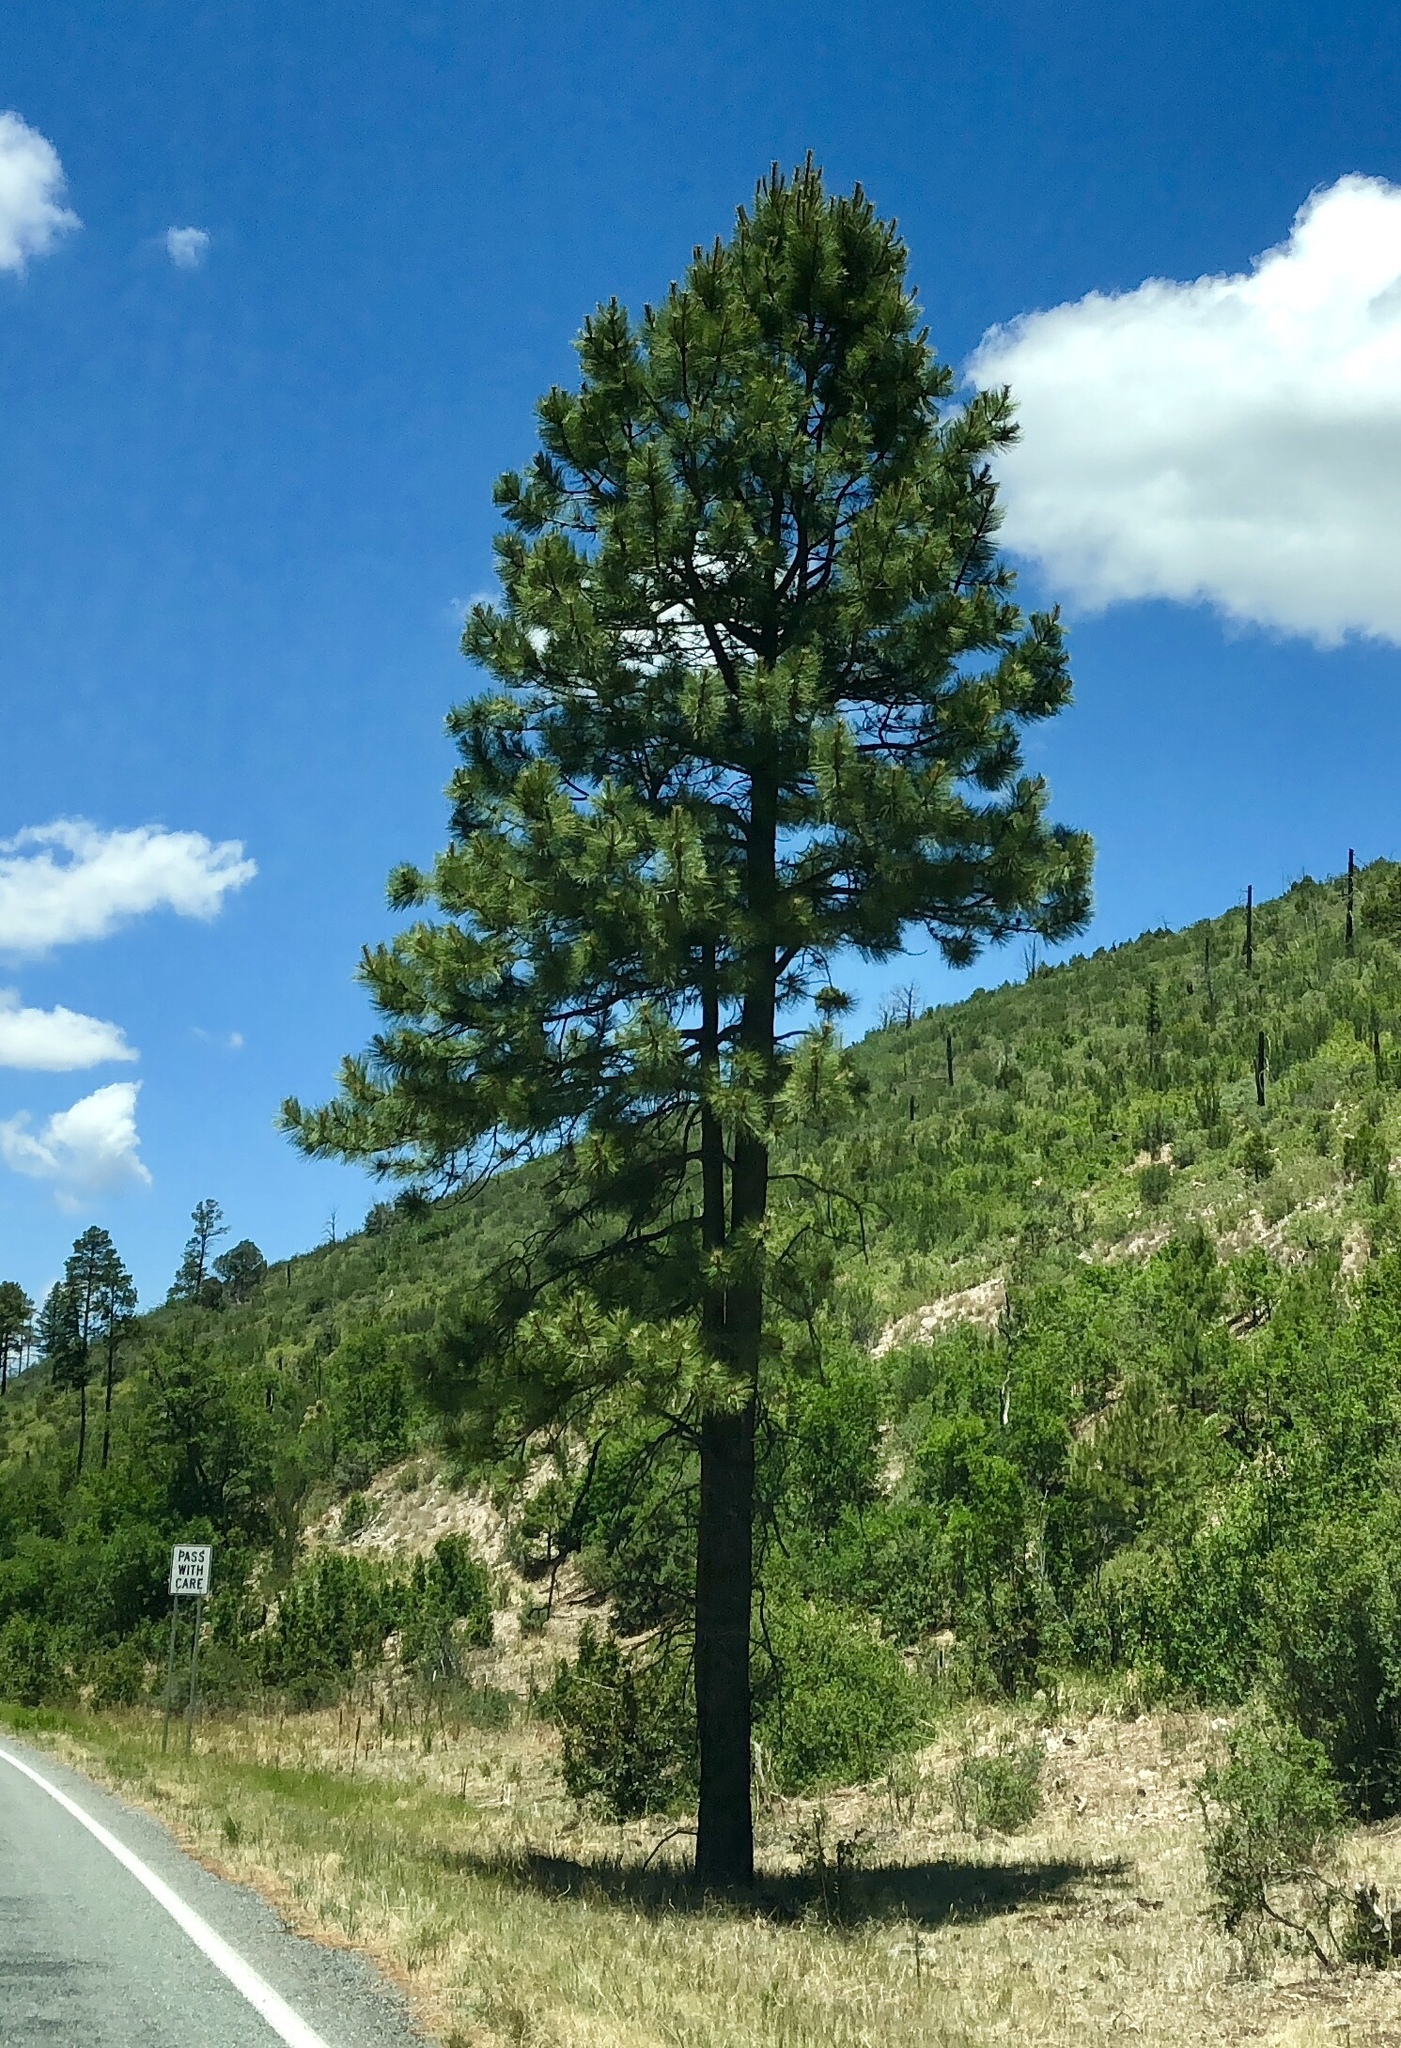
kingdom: Plantae
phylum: Tracheophyta
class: Pinopsida
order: Pinales
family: Pinaceae
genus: Pinus
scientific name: Pinus ponderosa
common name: Western yellow-pine
